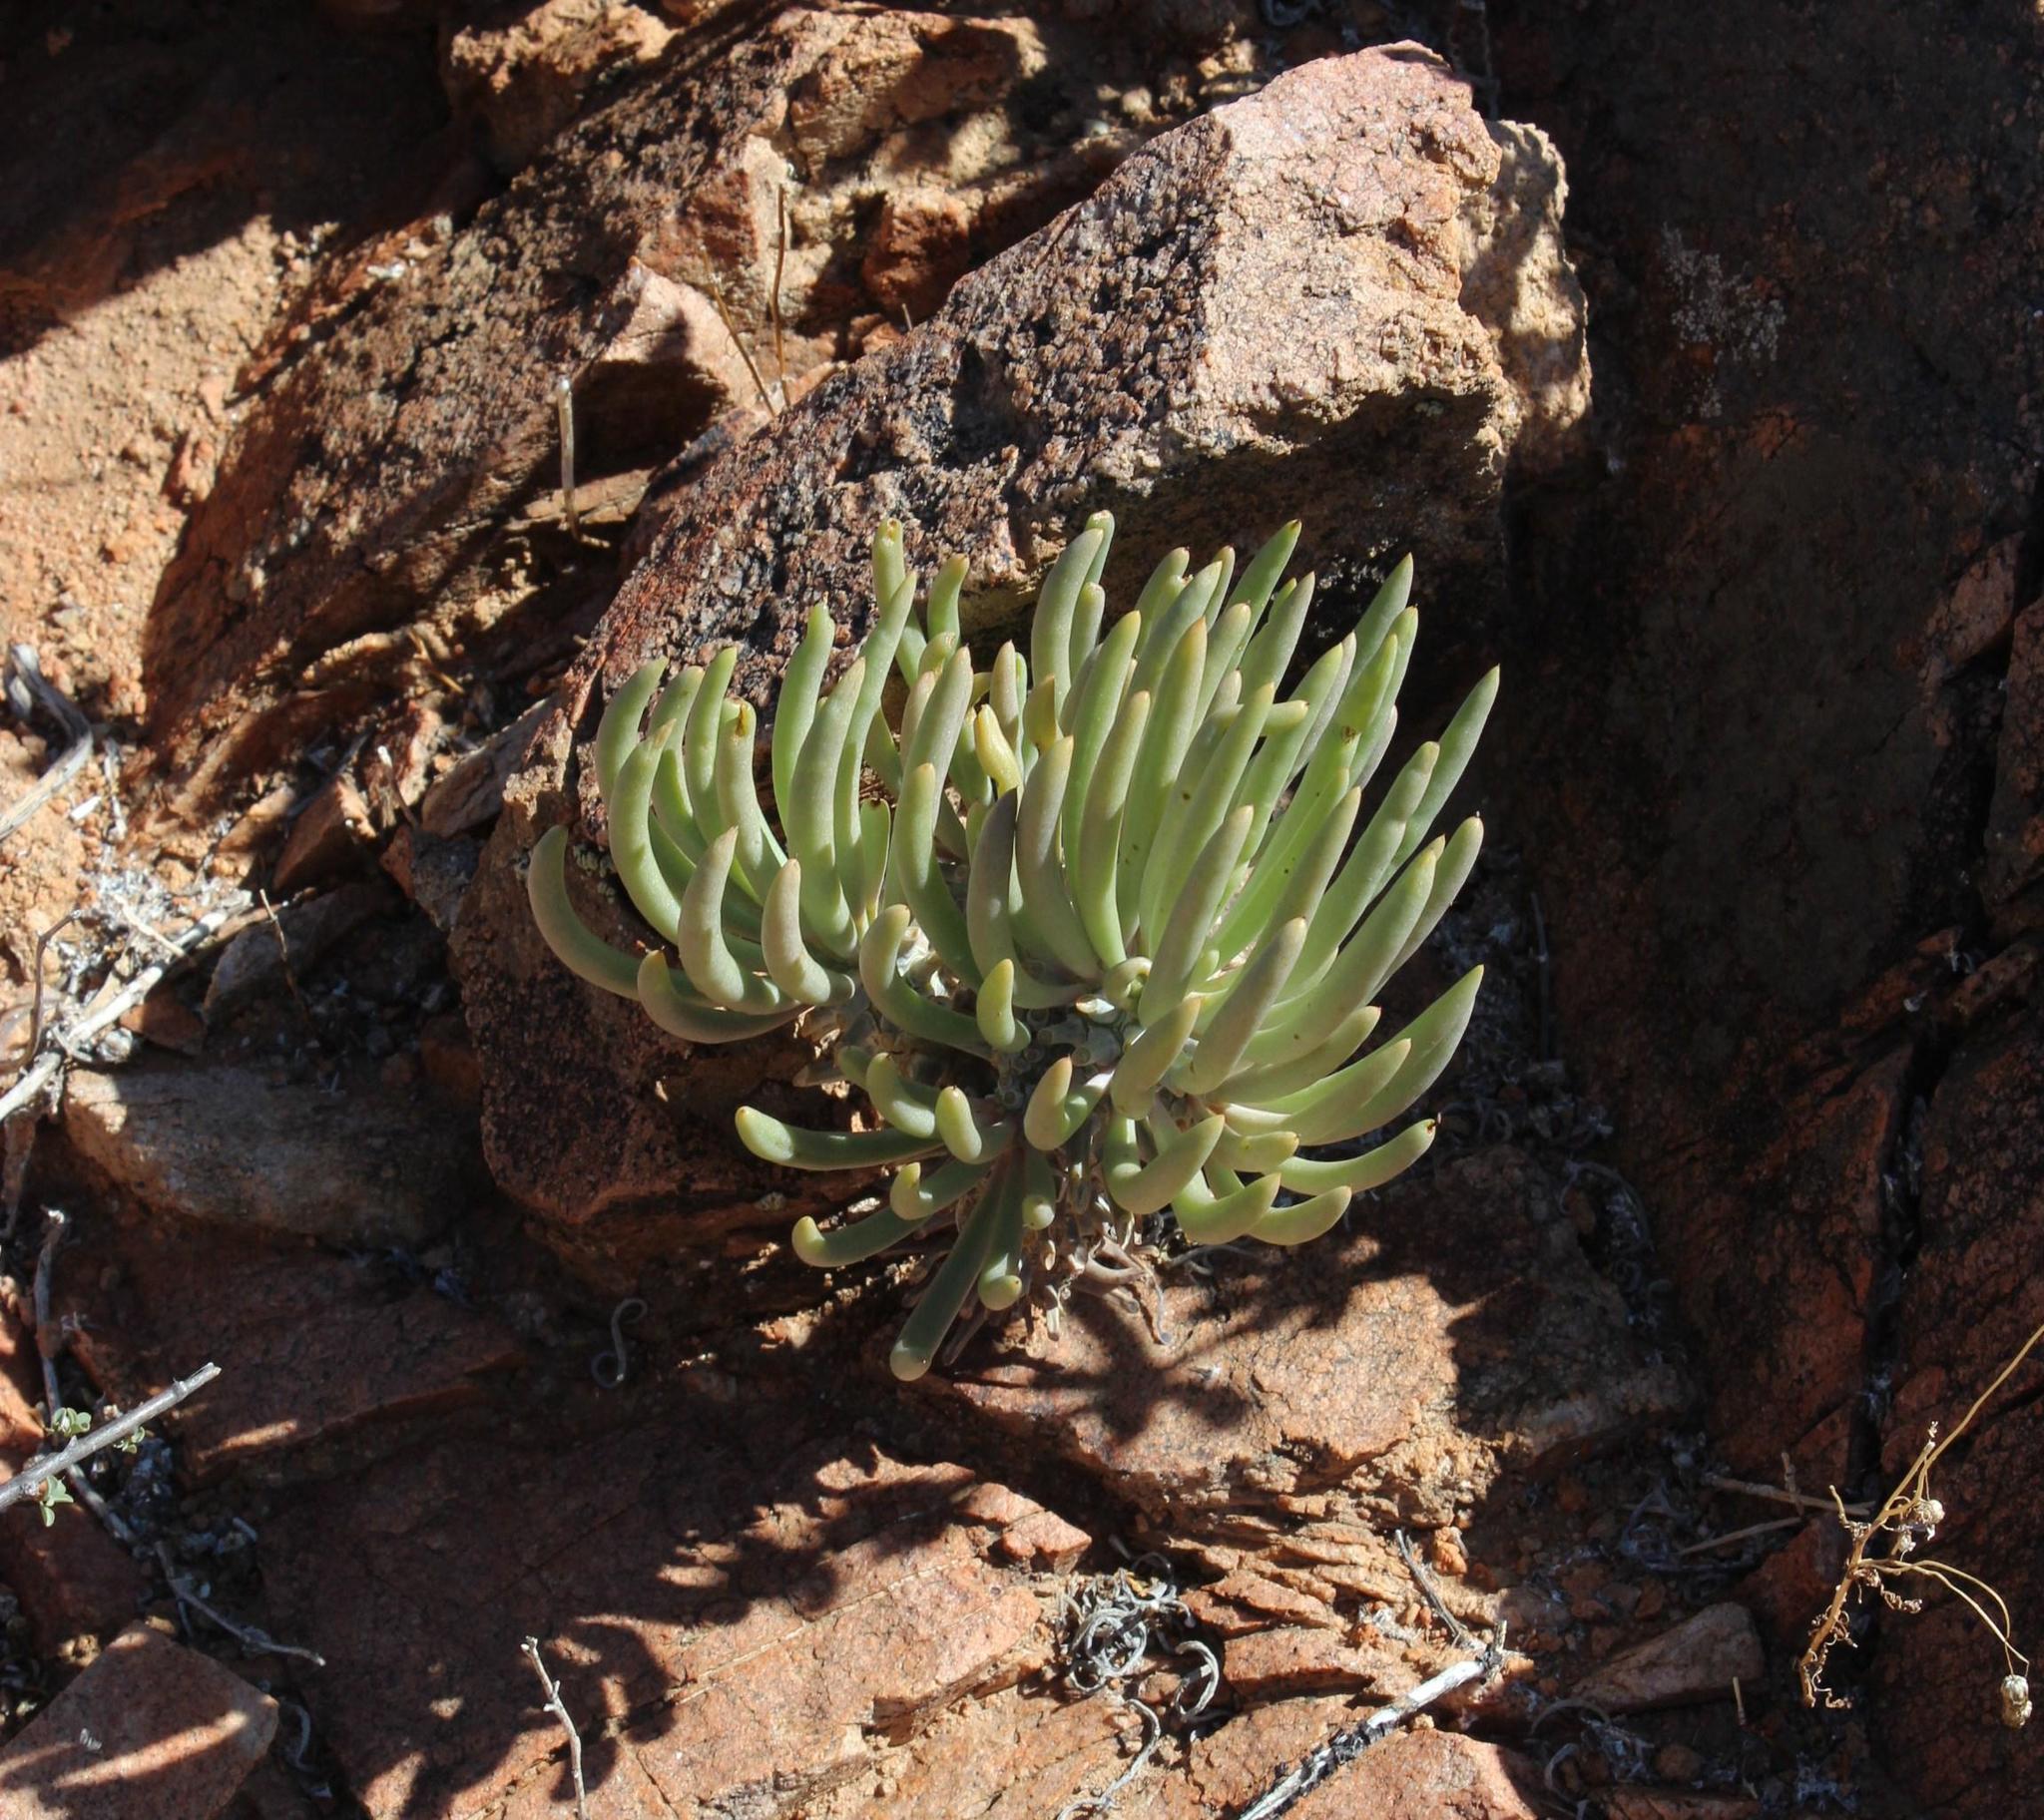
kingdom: Plantae
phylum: Tracheophyta
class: Magnoliopsida
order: Saxifragales
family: Crassulaceae
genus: Tylecodon
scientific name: Tylecodon wallichii
